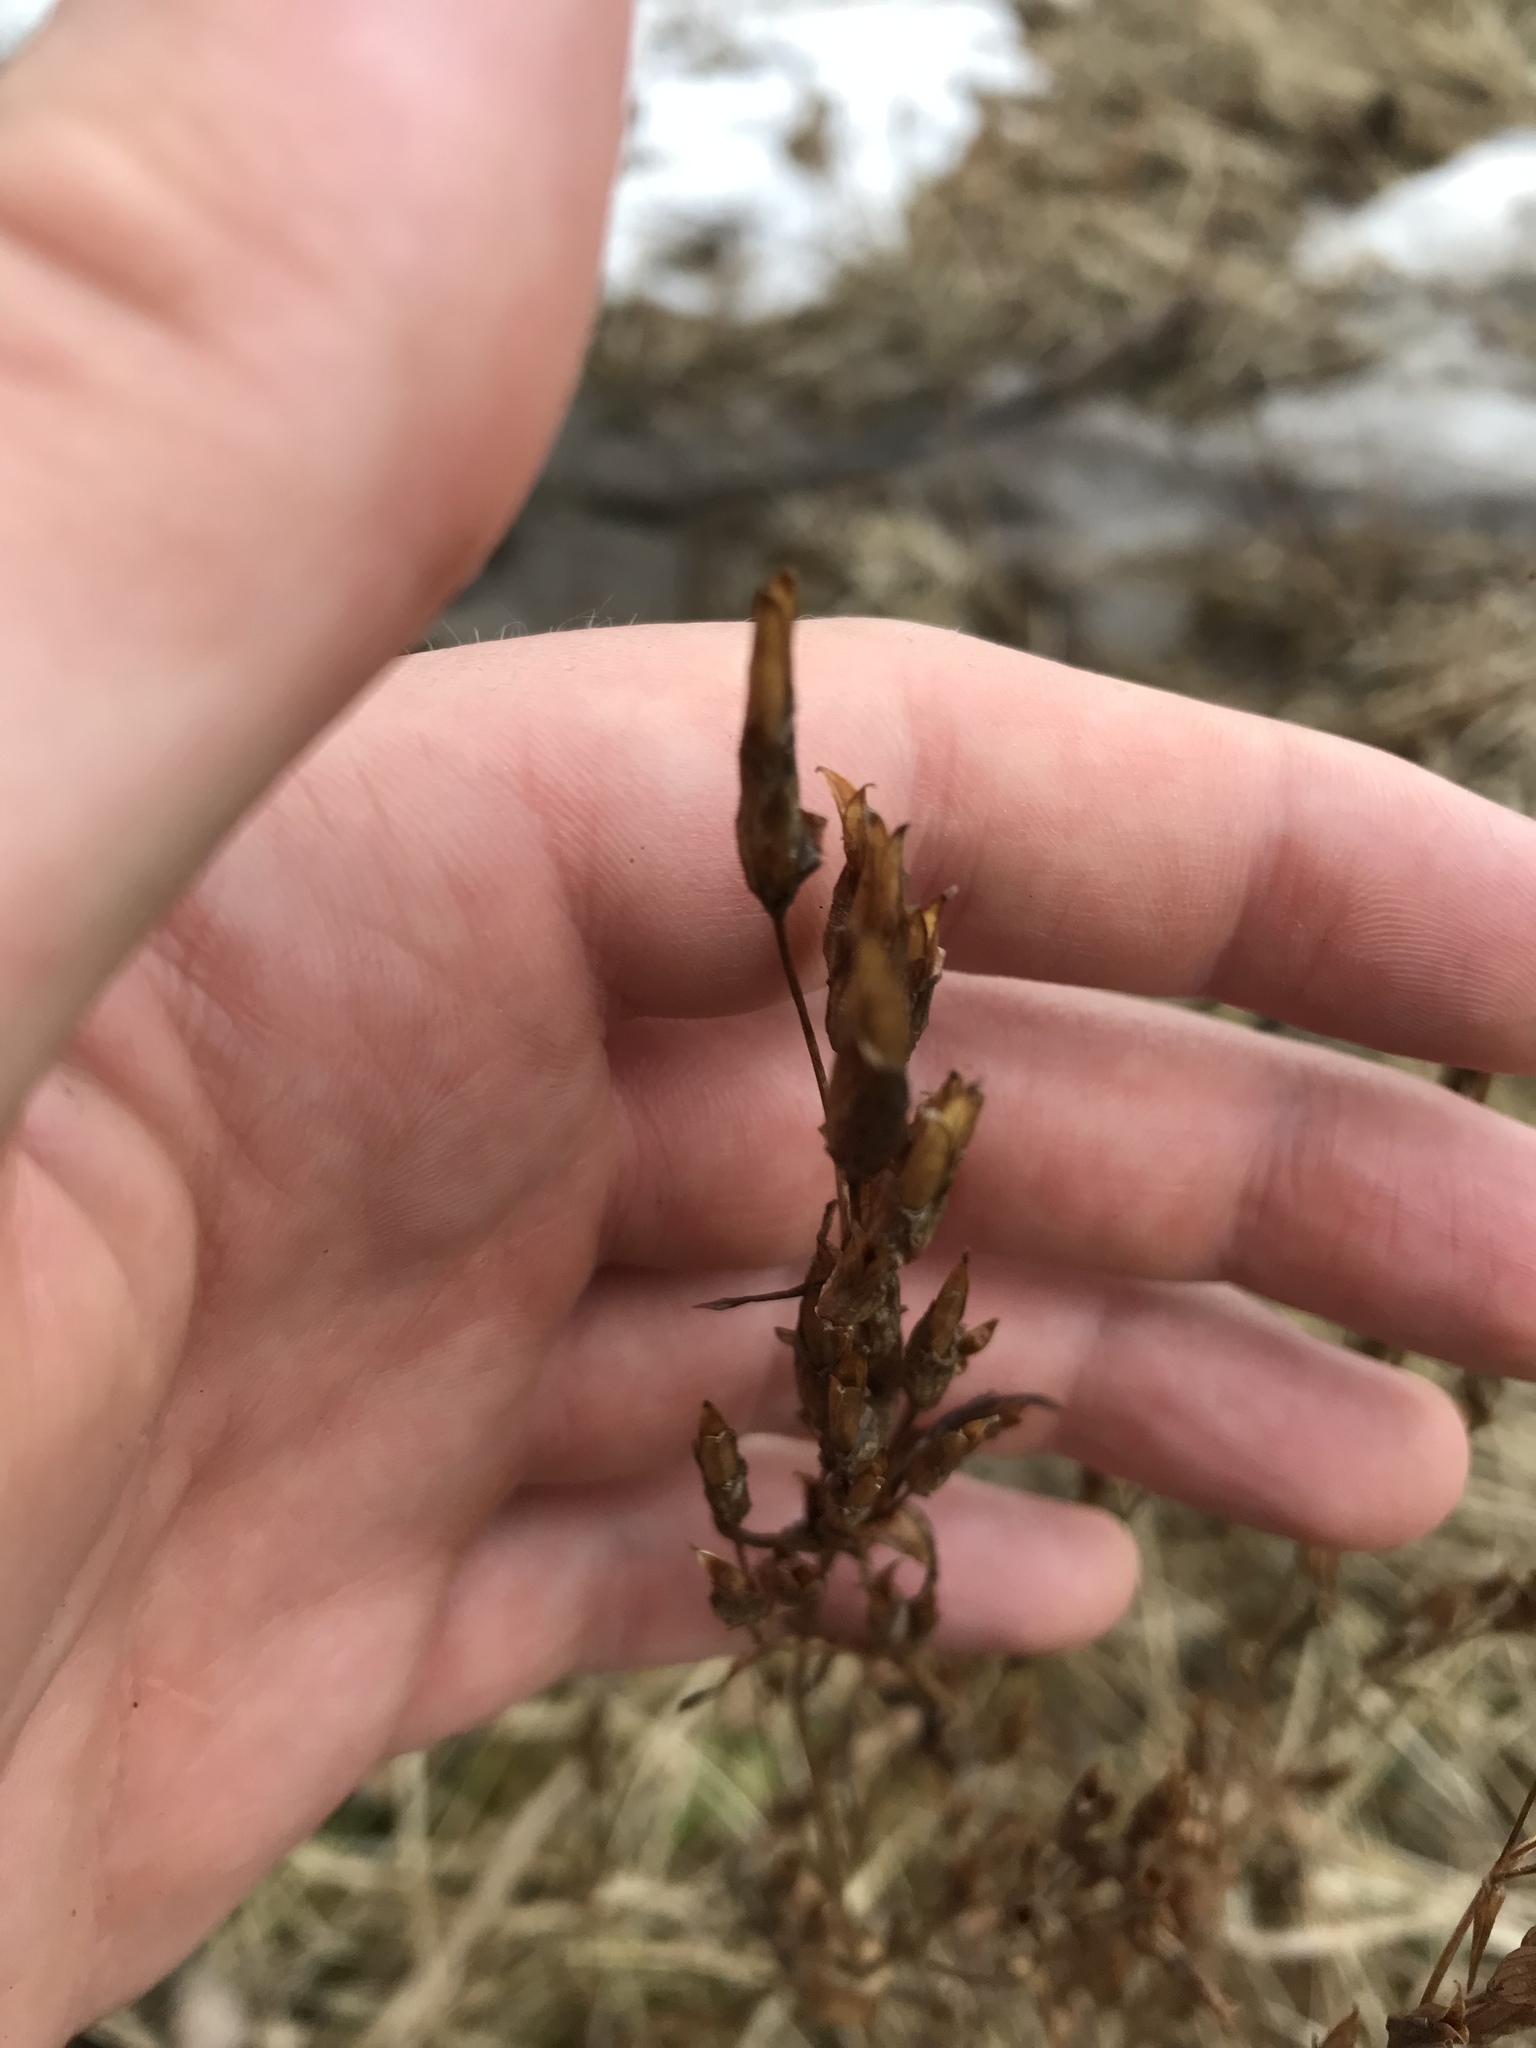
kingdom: Plantae
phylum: Tracheophyta
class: Magnoliopsida
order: Gentianales
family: Gentianaceae
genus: Gentianella
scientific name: Gentianella amarella
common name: Autumn gentian
